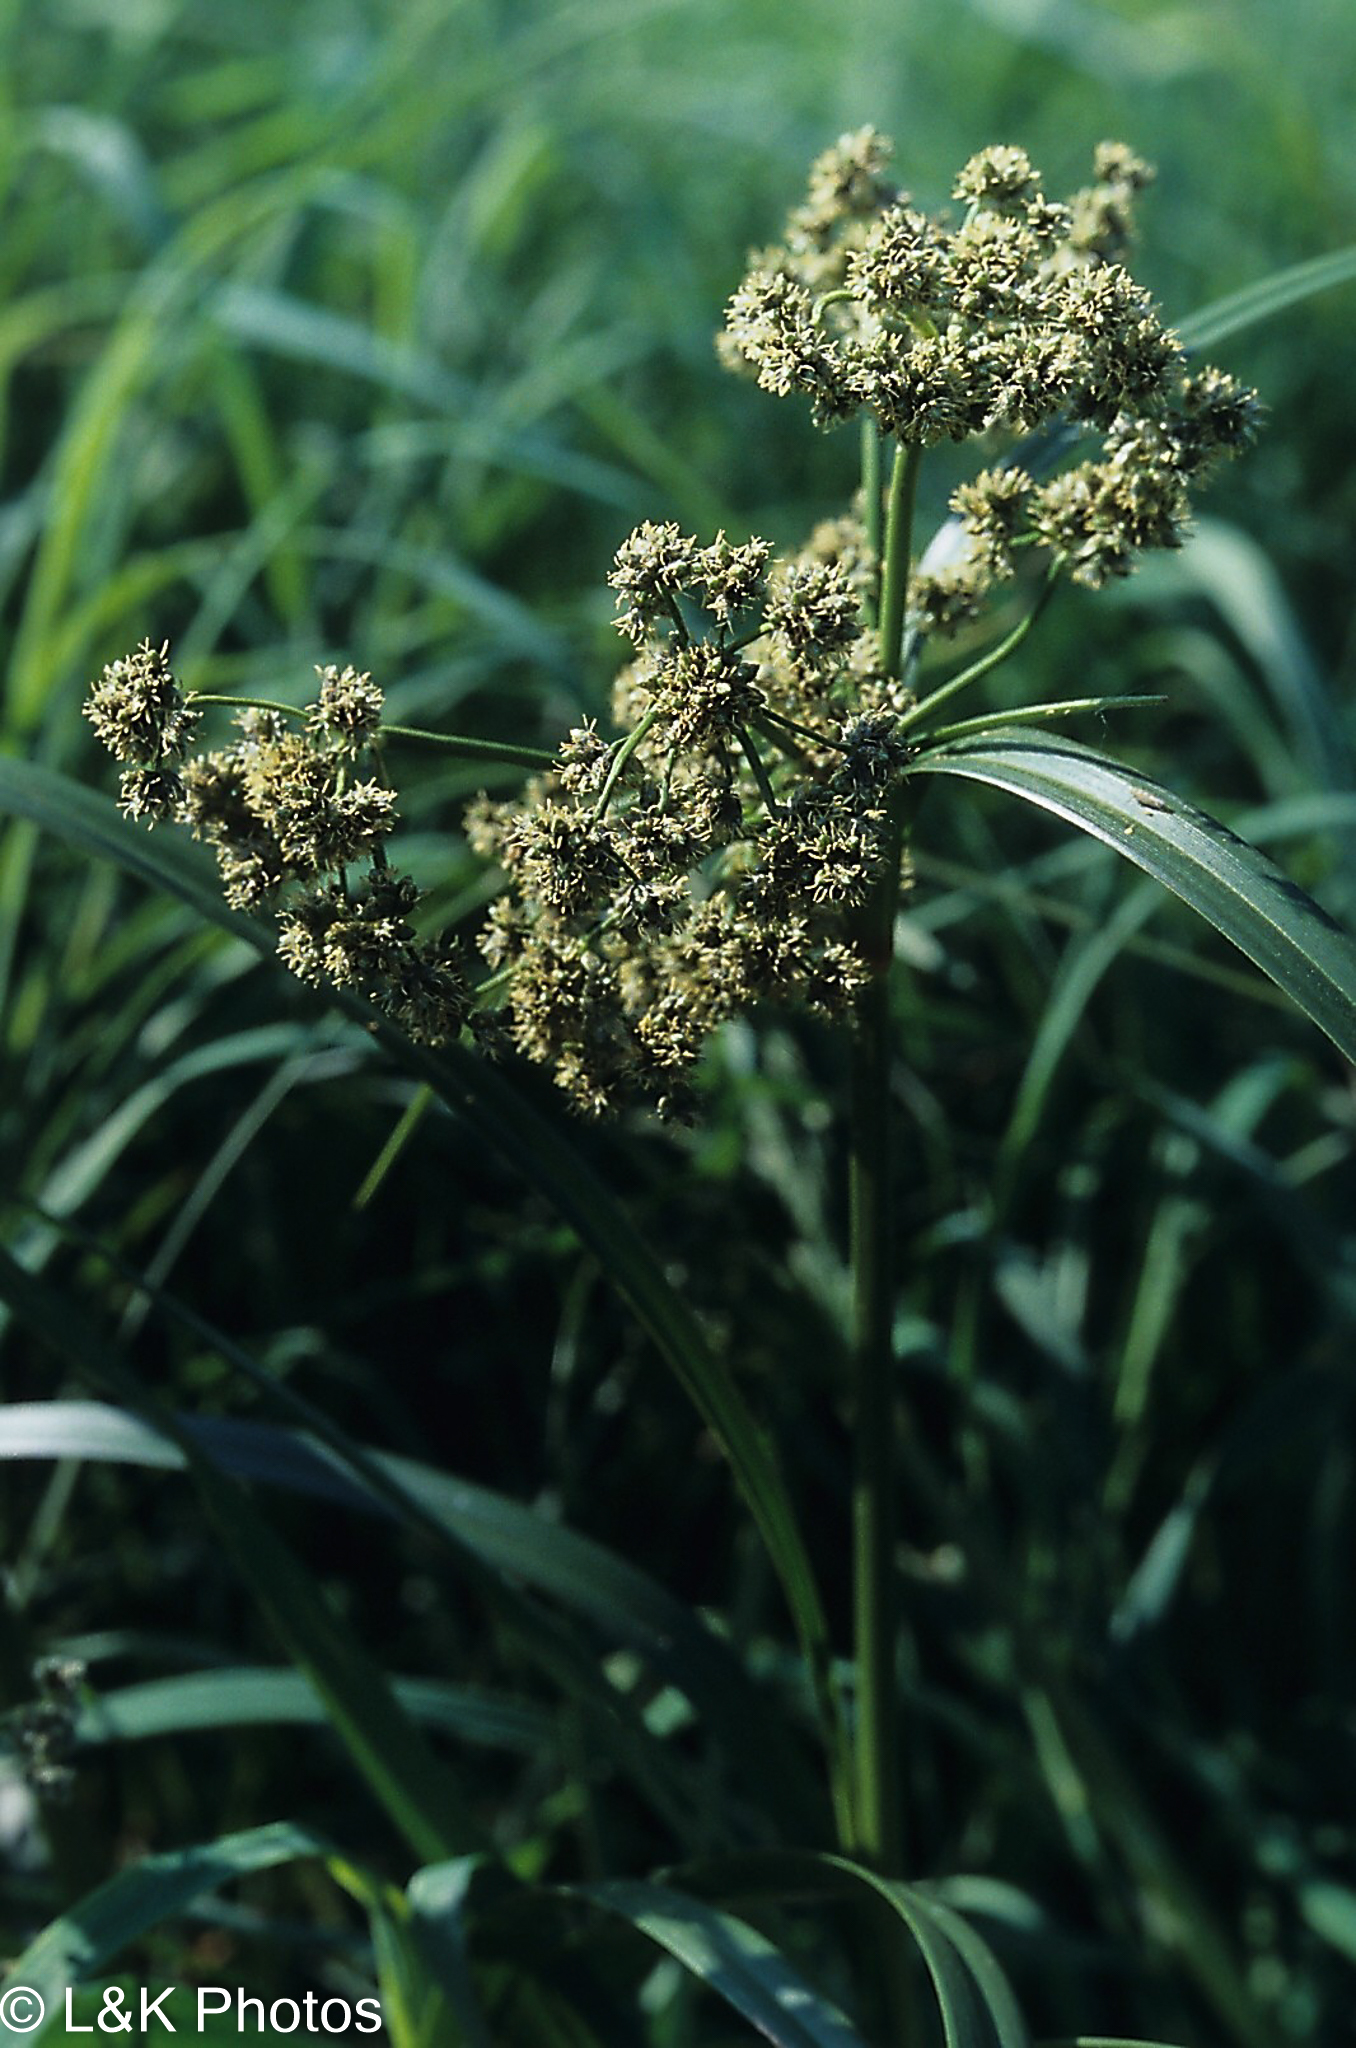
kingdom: Plantae
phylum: Tracheophyta
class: Liliopsida
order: Poales
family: Cyperaceae
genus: Scirpus
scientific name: Scirpus microcarpus
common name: Panicled bulrush
